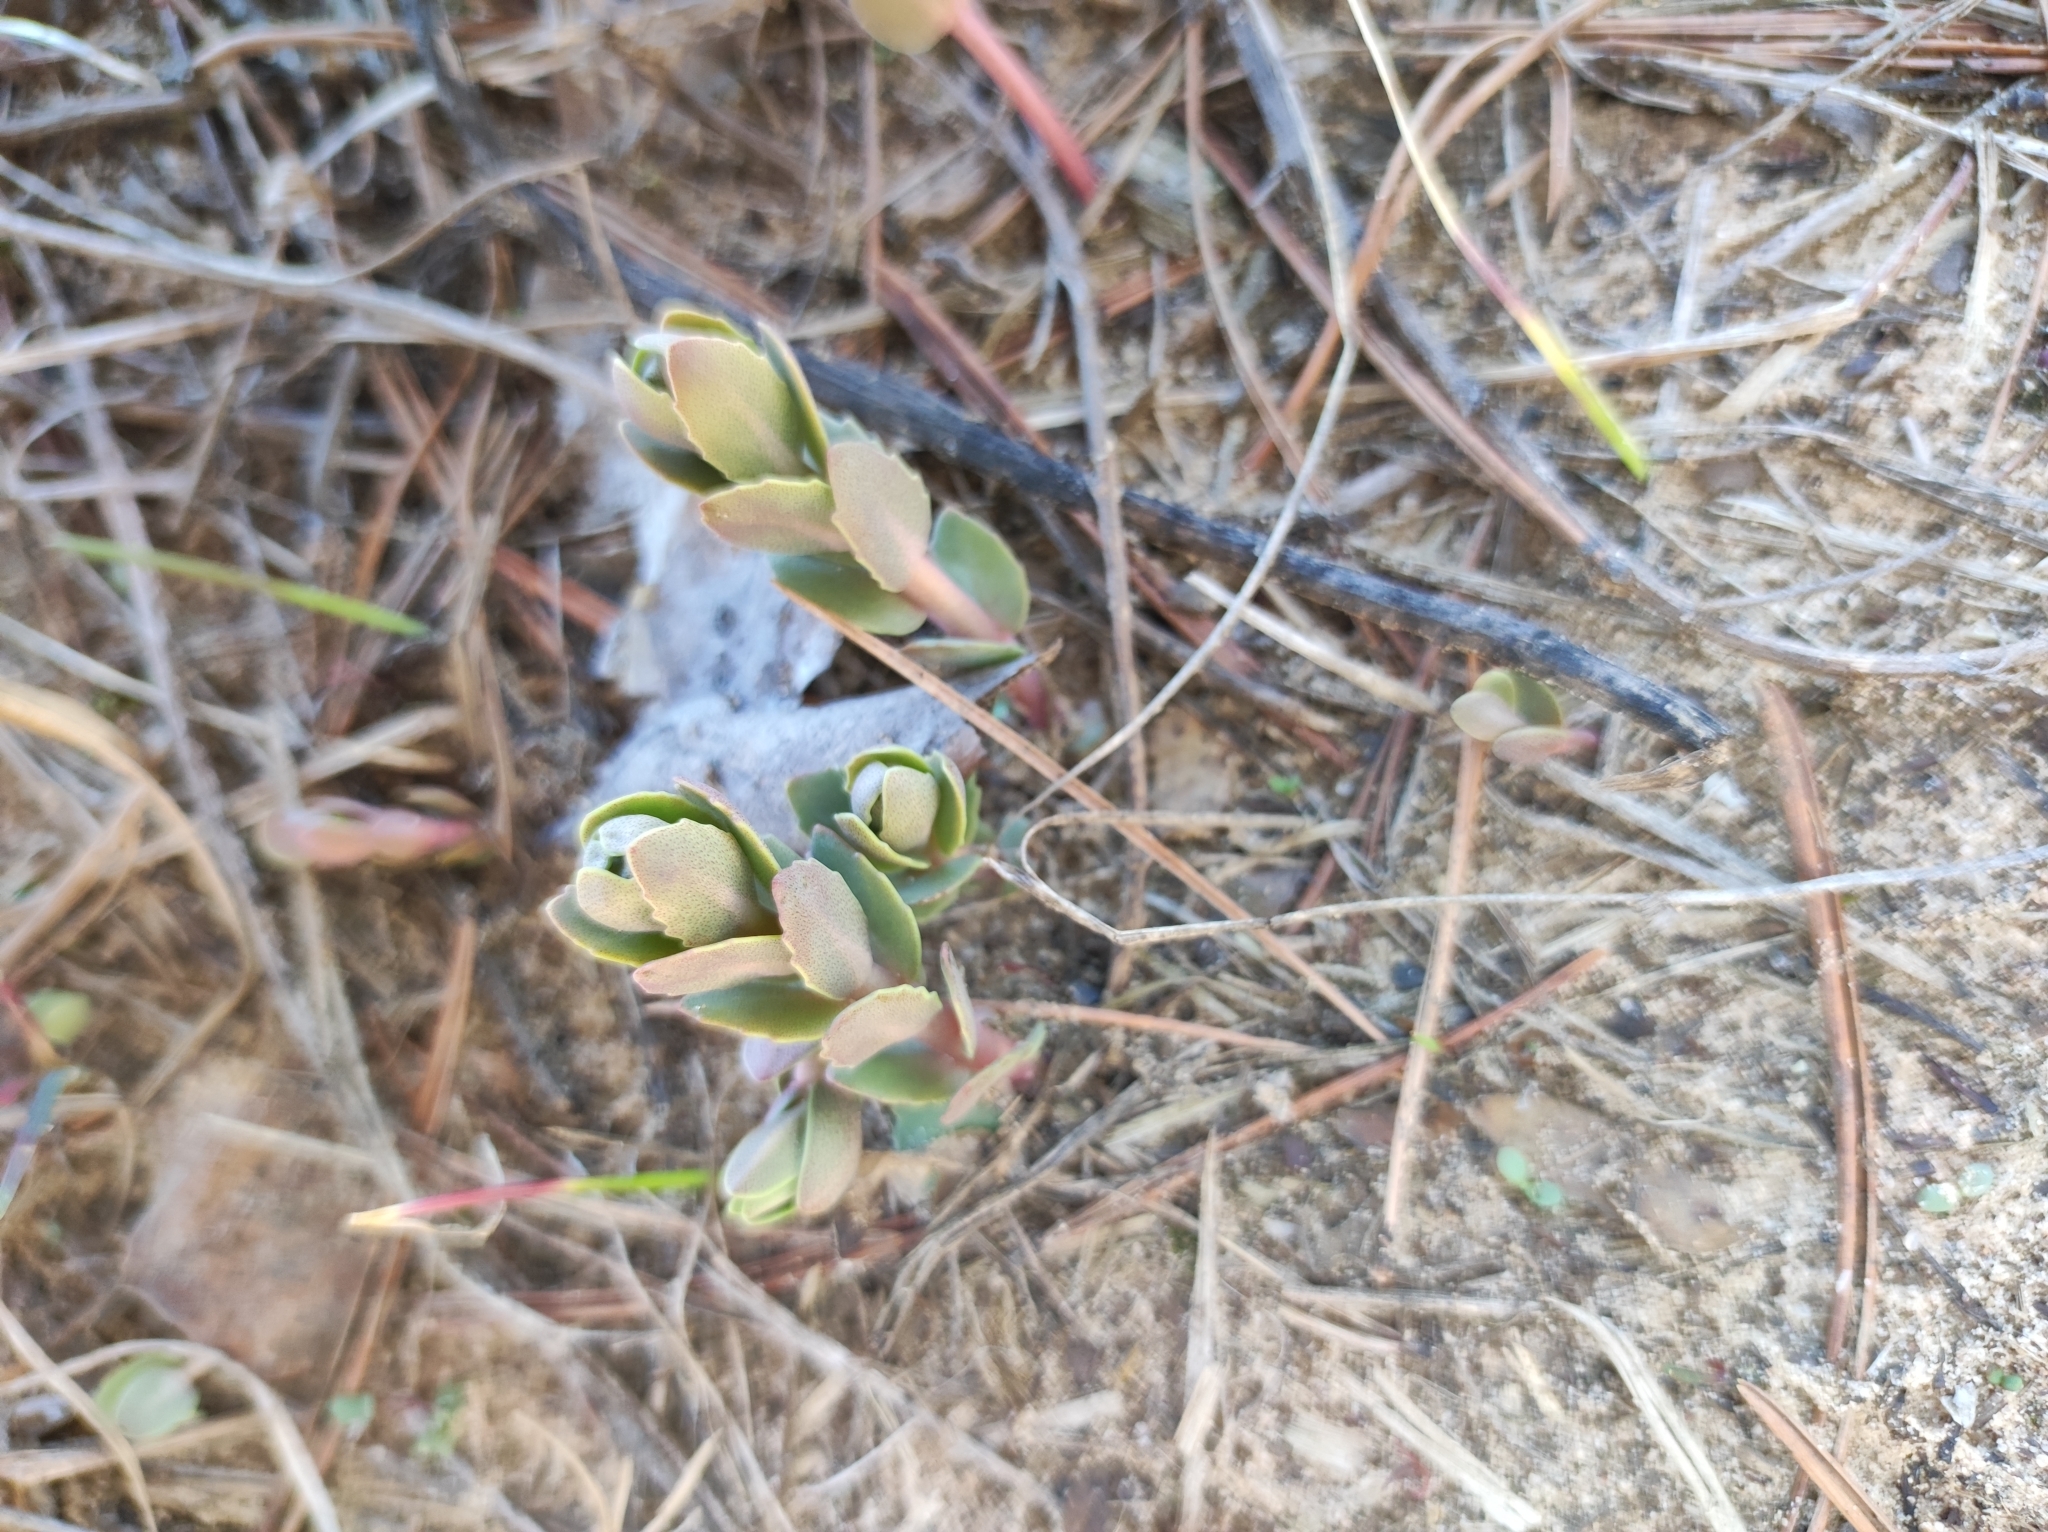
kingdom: Plantae
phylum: Tracheophyta
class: Magnoliopsida
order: Saxifragales
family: Crassulaceae
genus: Hylotelephium
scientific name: Hylotelephium maximum
